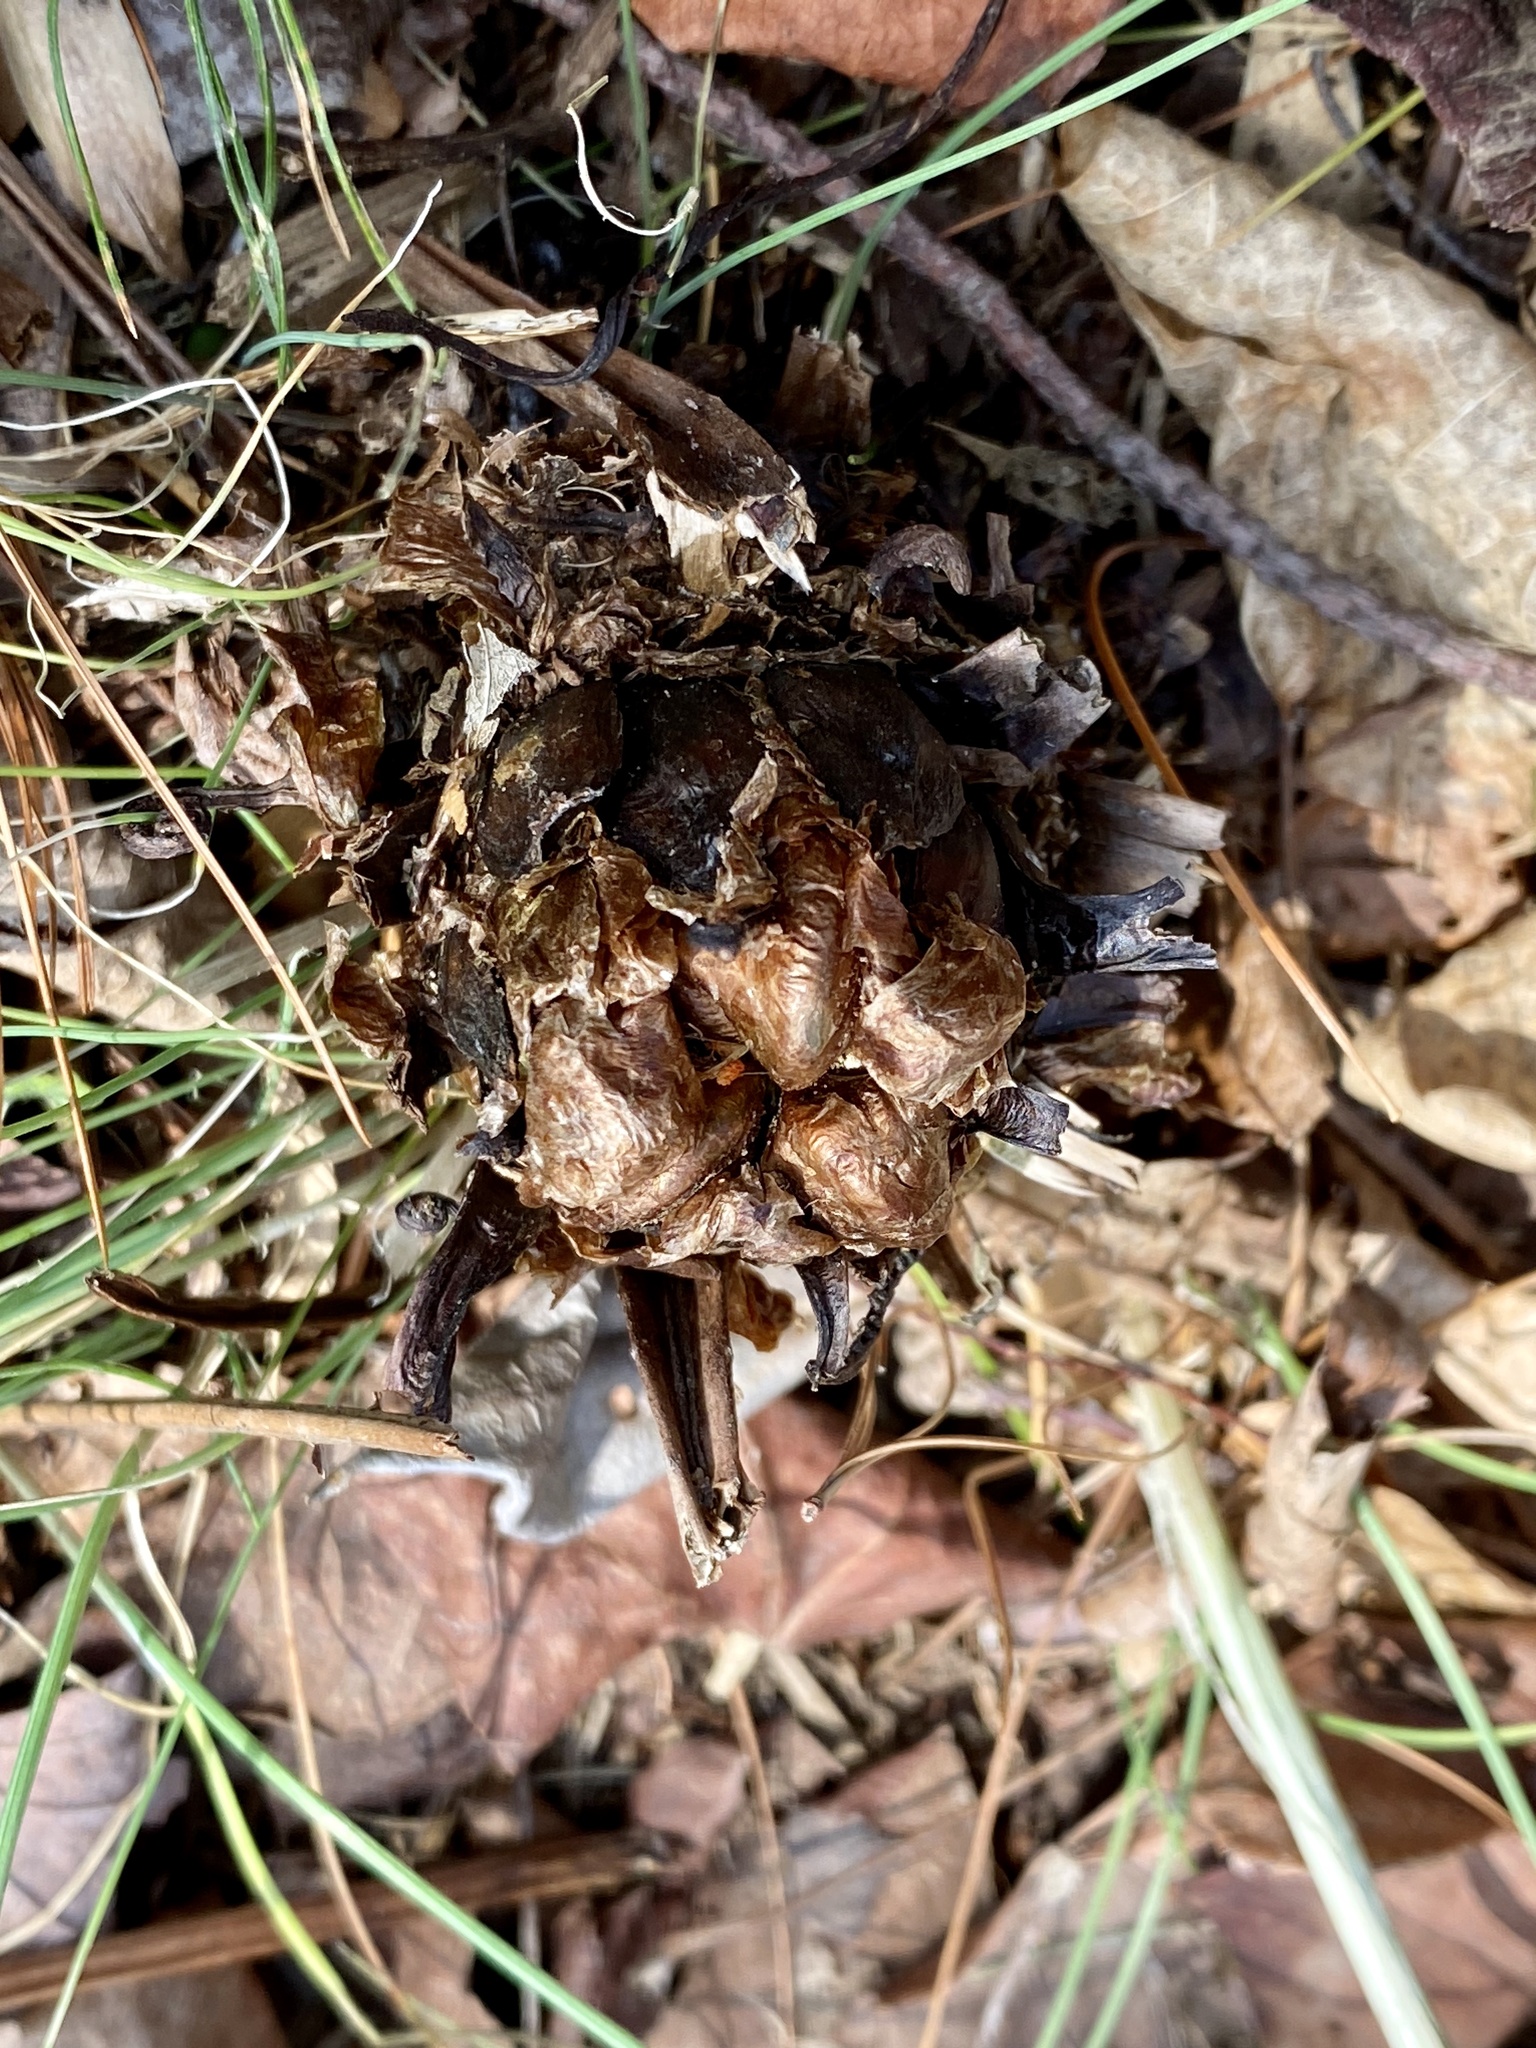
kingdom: Plantae
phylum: Tracheophyta
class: Polypodiopsida
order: Polypodiales
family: Onocleaceae
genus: Matteuccia
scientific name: Matteuccia struthiopteris
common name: Ostrich fern
